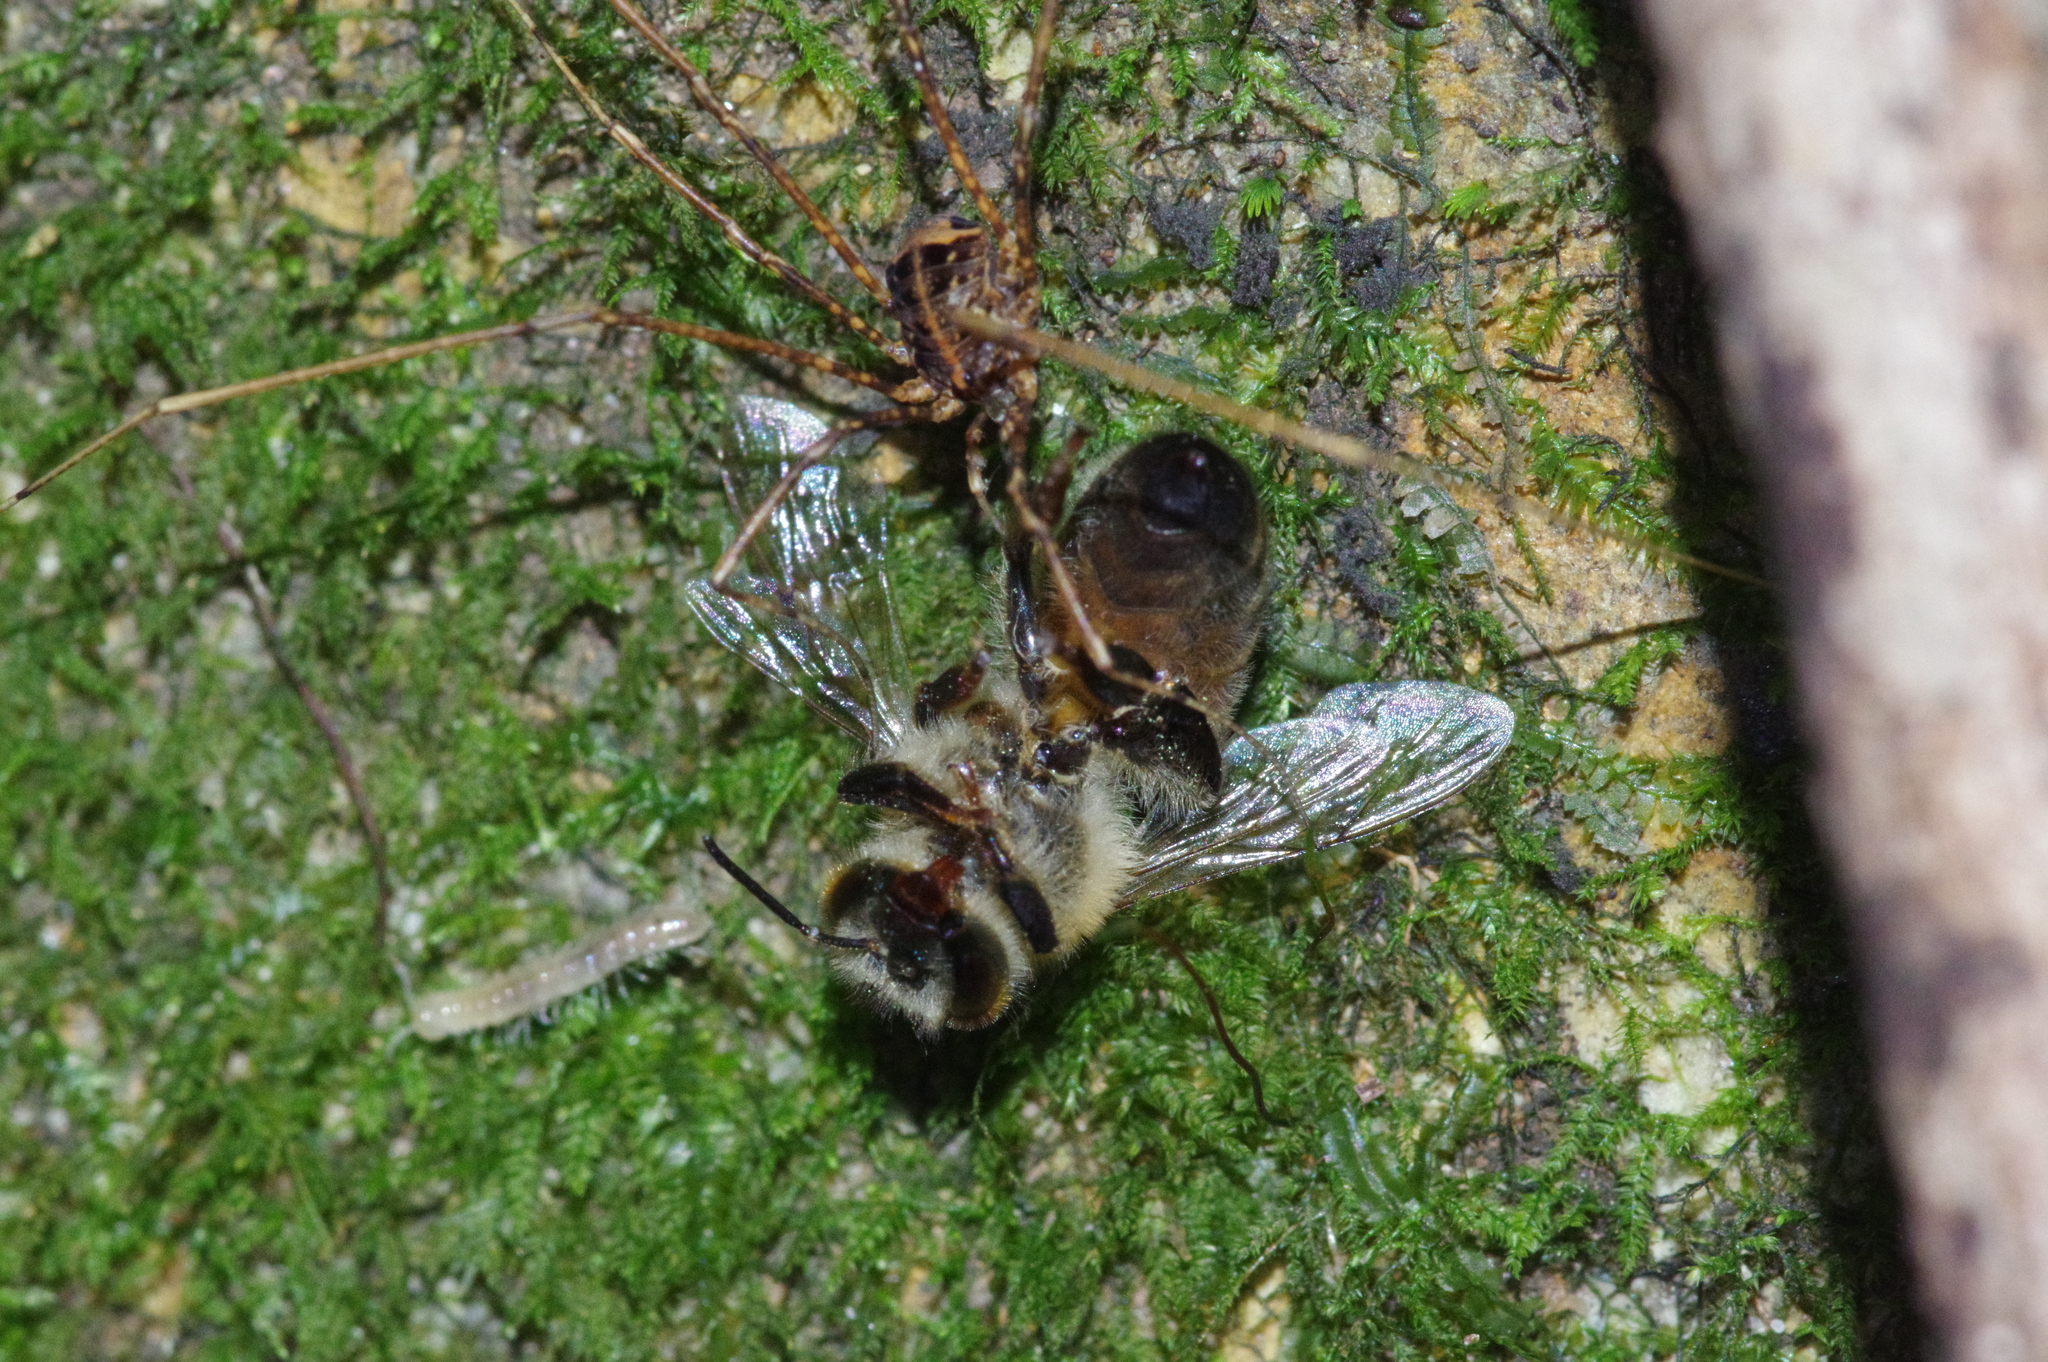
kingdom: Animalia
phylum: Arthropoda
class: Insecta
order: Hymenoptera
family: Apidae
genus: Apis
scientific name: Apis mellifera
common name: Honey bee
